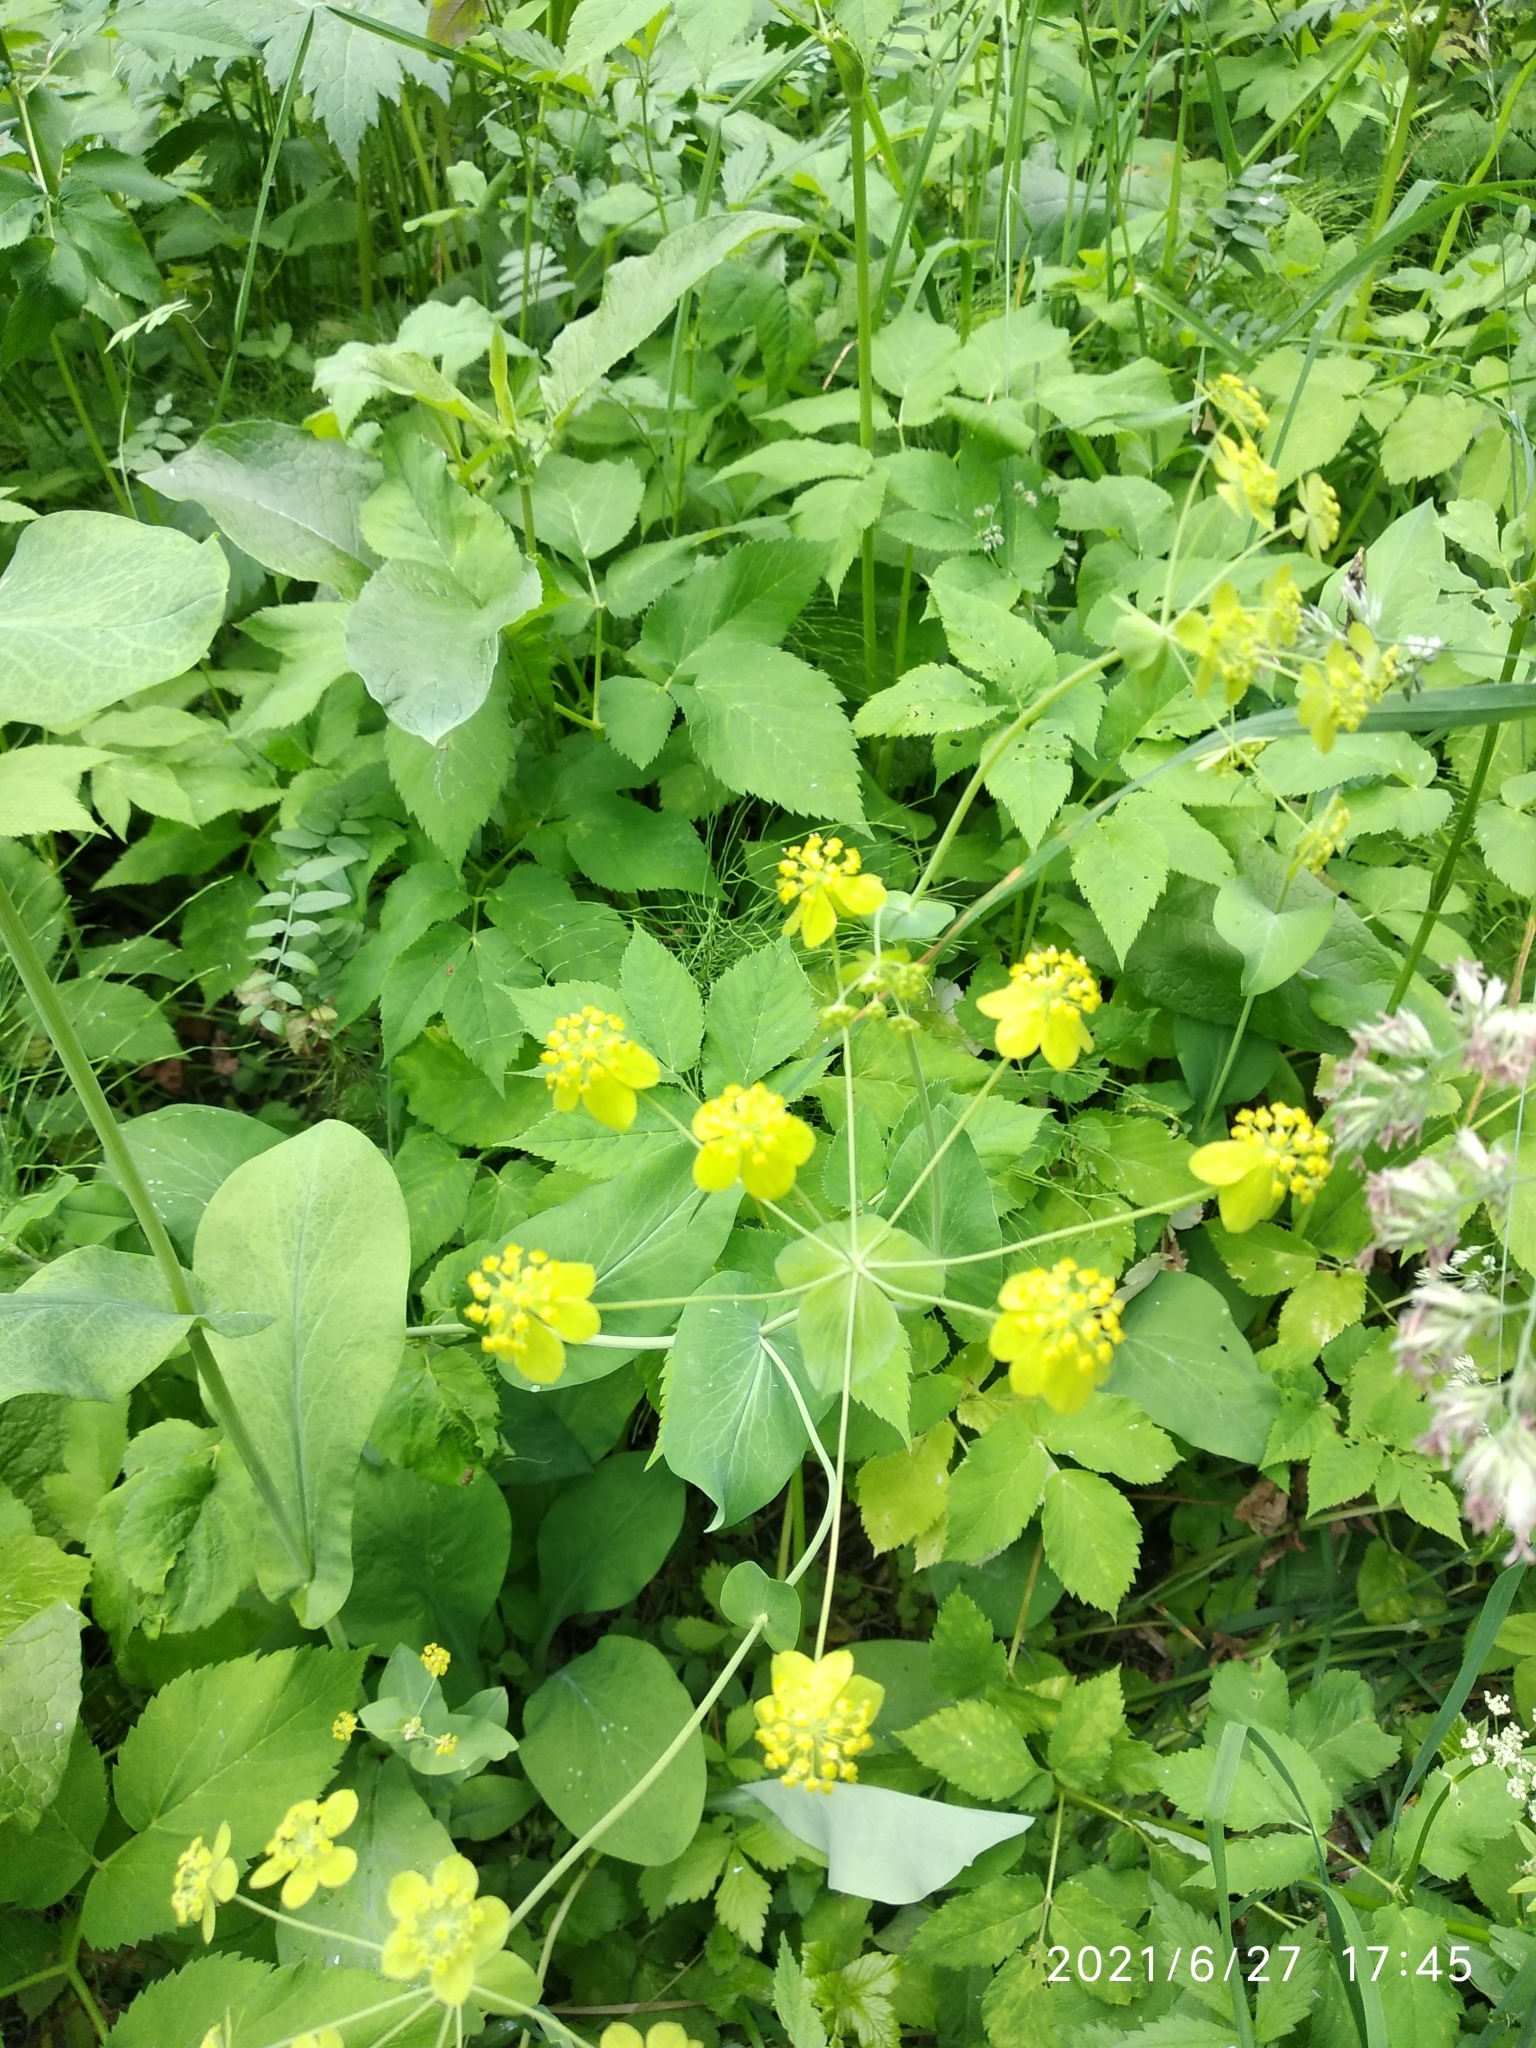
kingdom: Plantae
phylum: Tracheophyta
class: Magnoliopsida
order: Apiales
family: Apiaceae
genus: Bupleurum
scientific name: Bupleurum aureum
